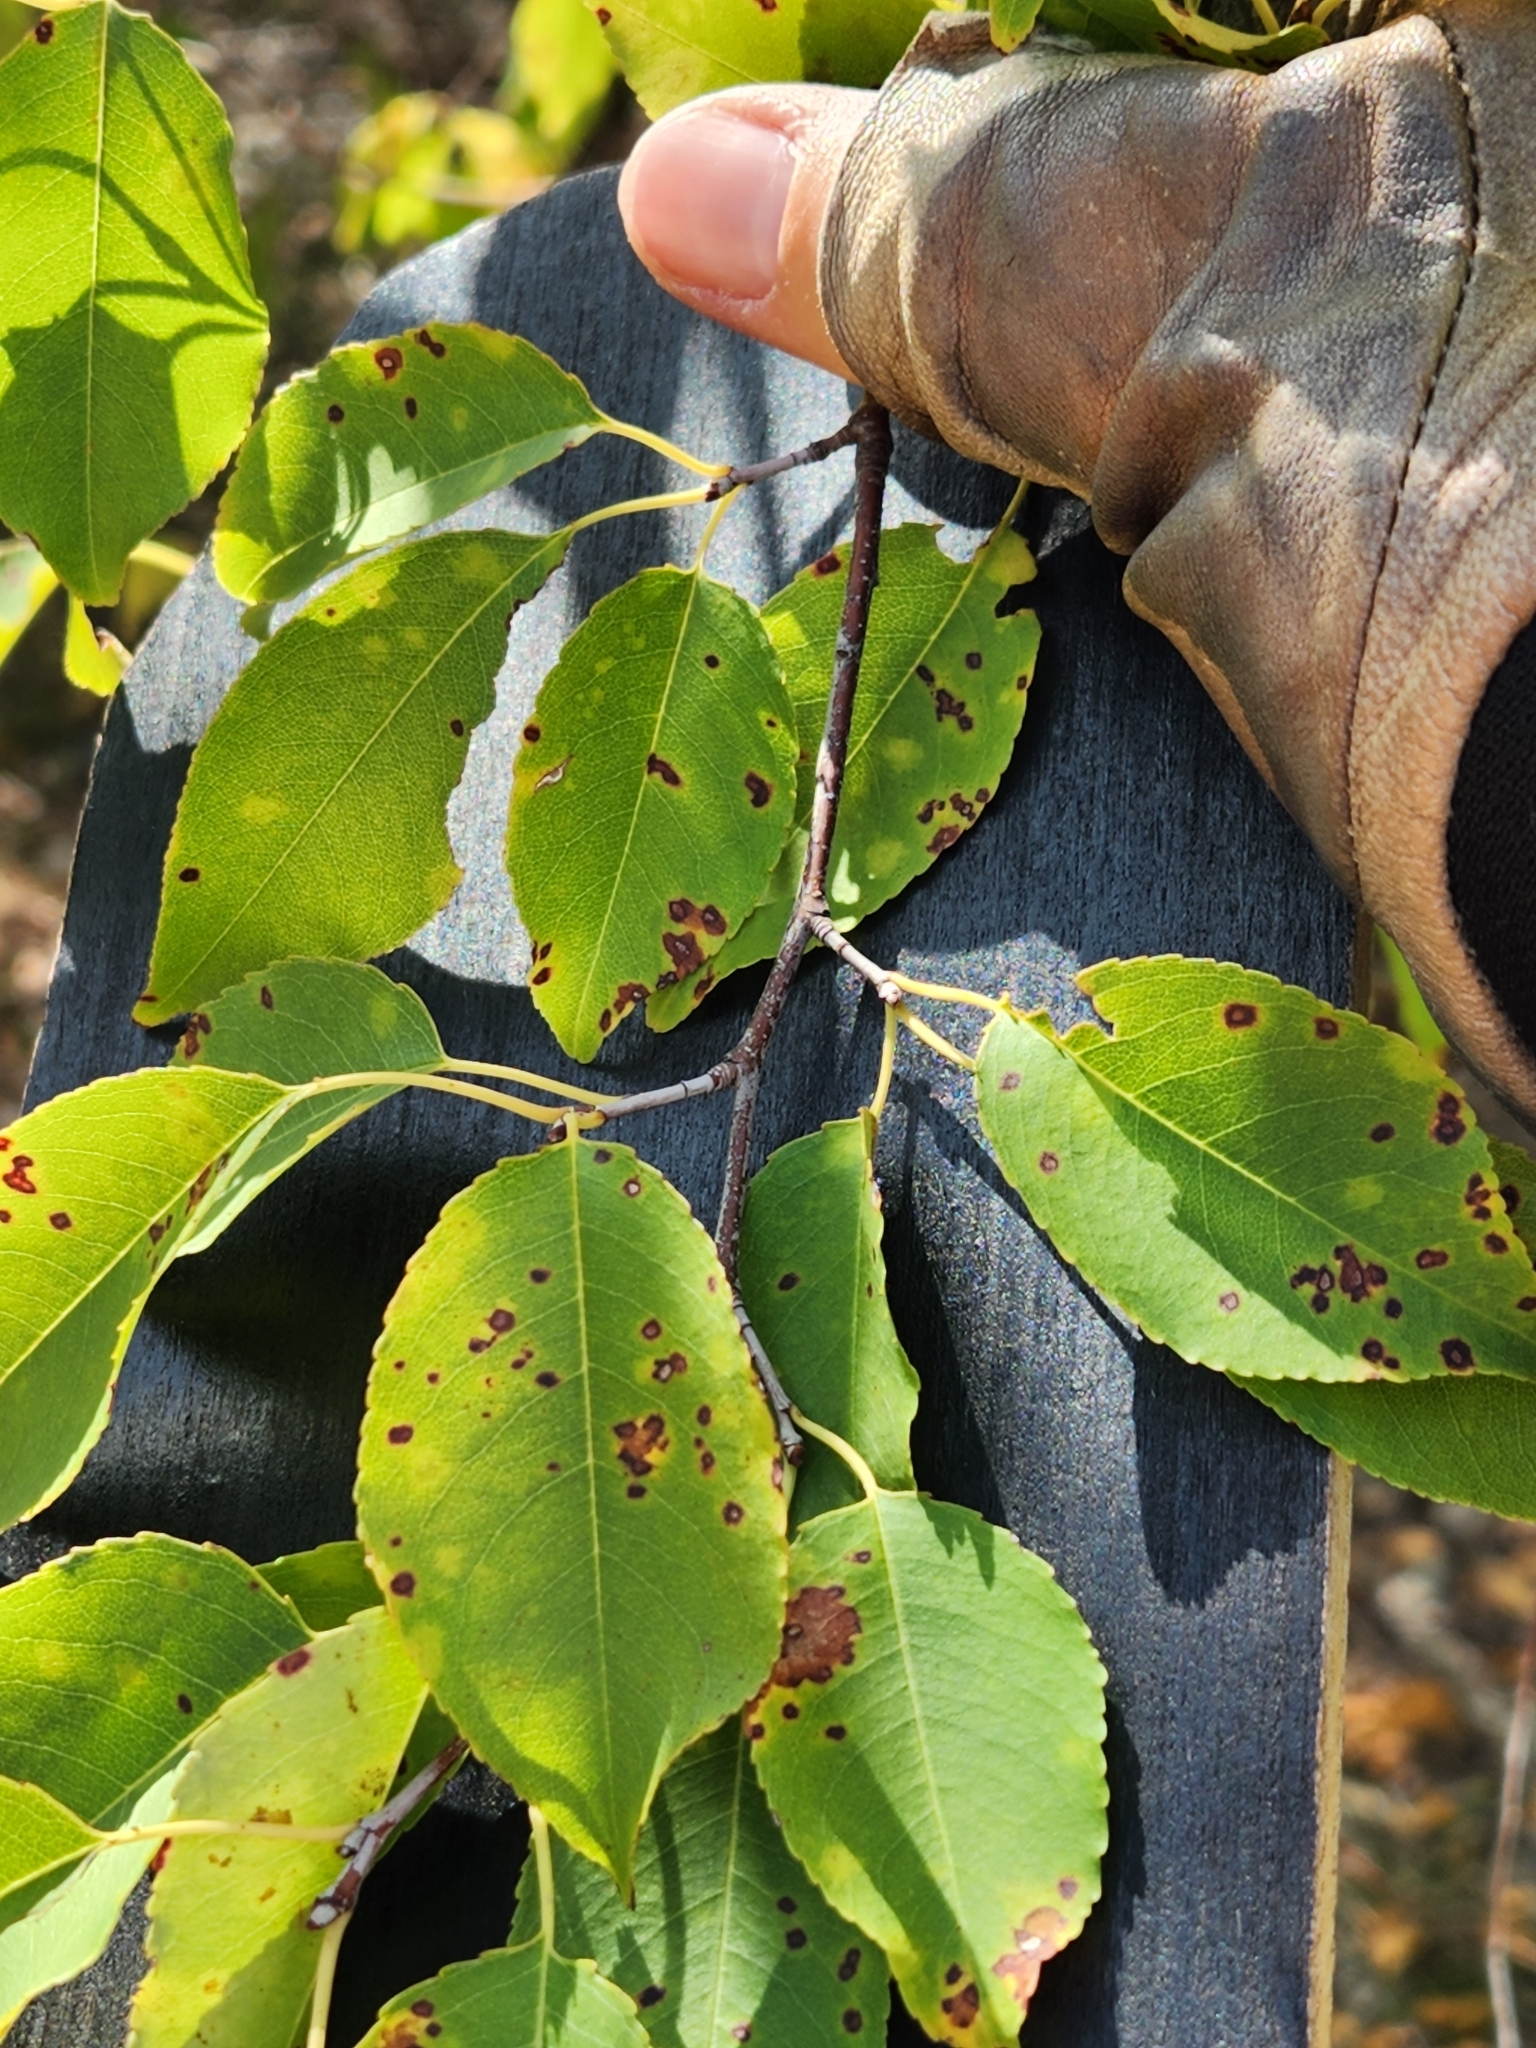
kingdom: Plantae
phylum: Tracheophyta
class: Magnoliopsida
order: Rosales
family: Rosaceae
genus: Prunus
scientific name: Prunus serotina
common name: Black cherry
